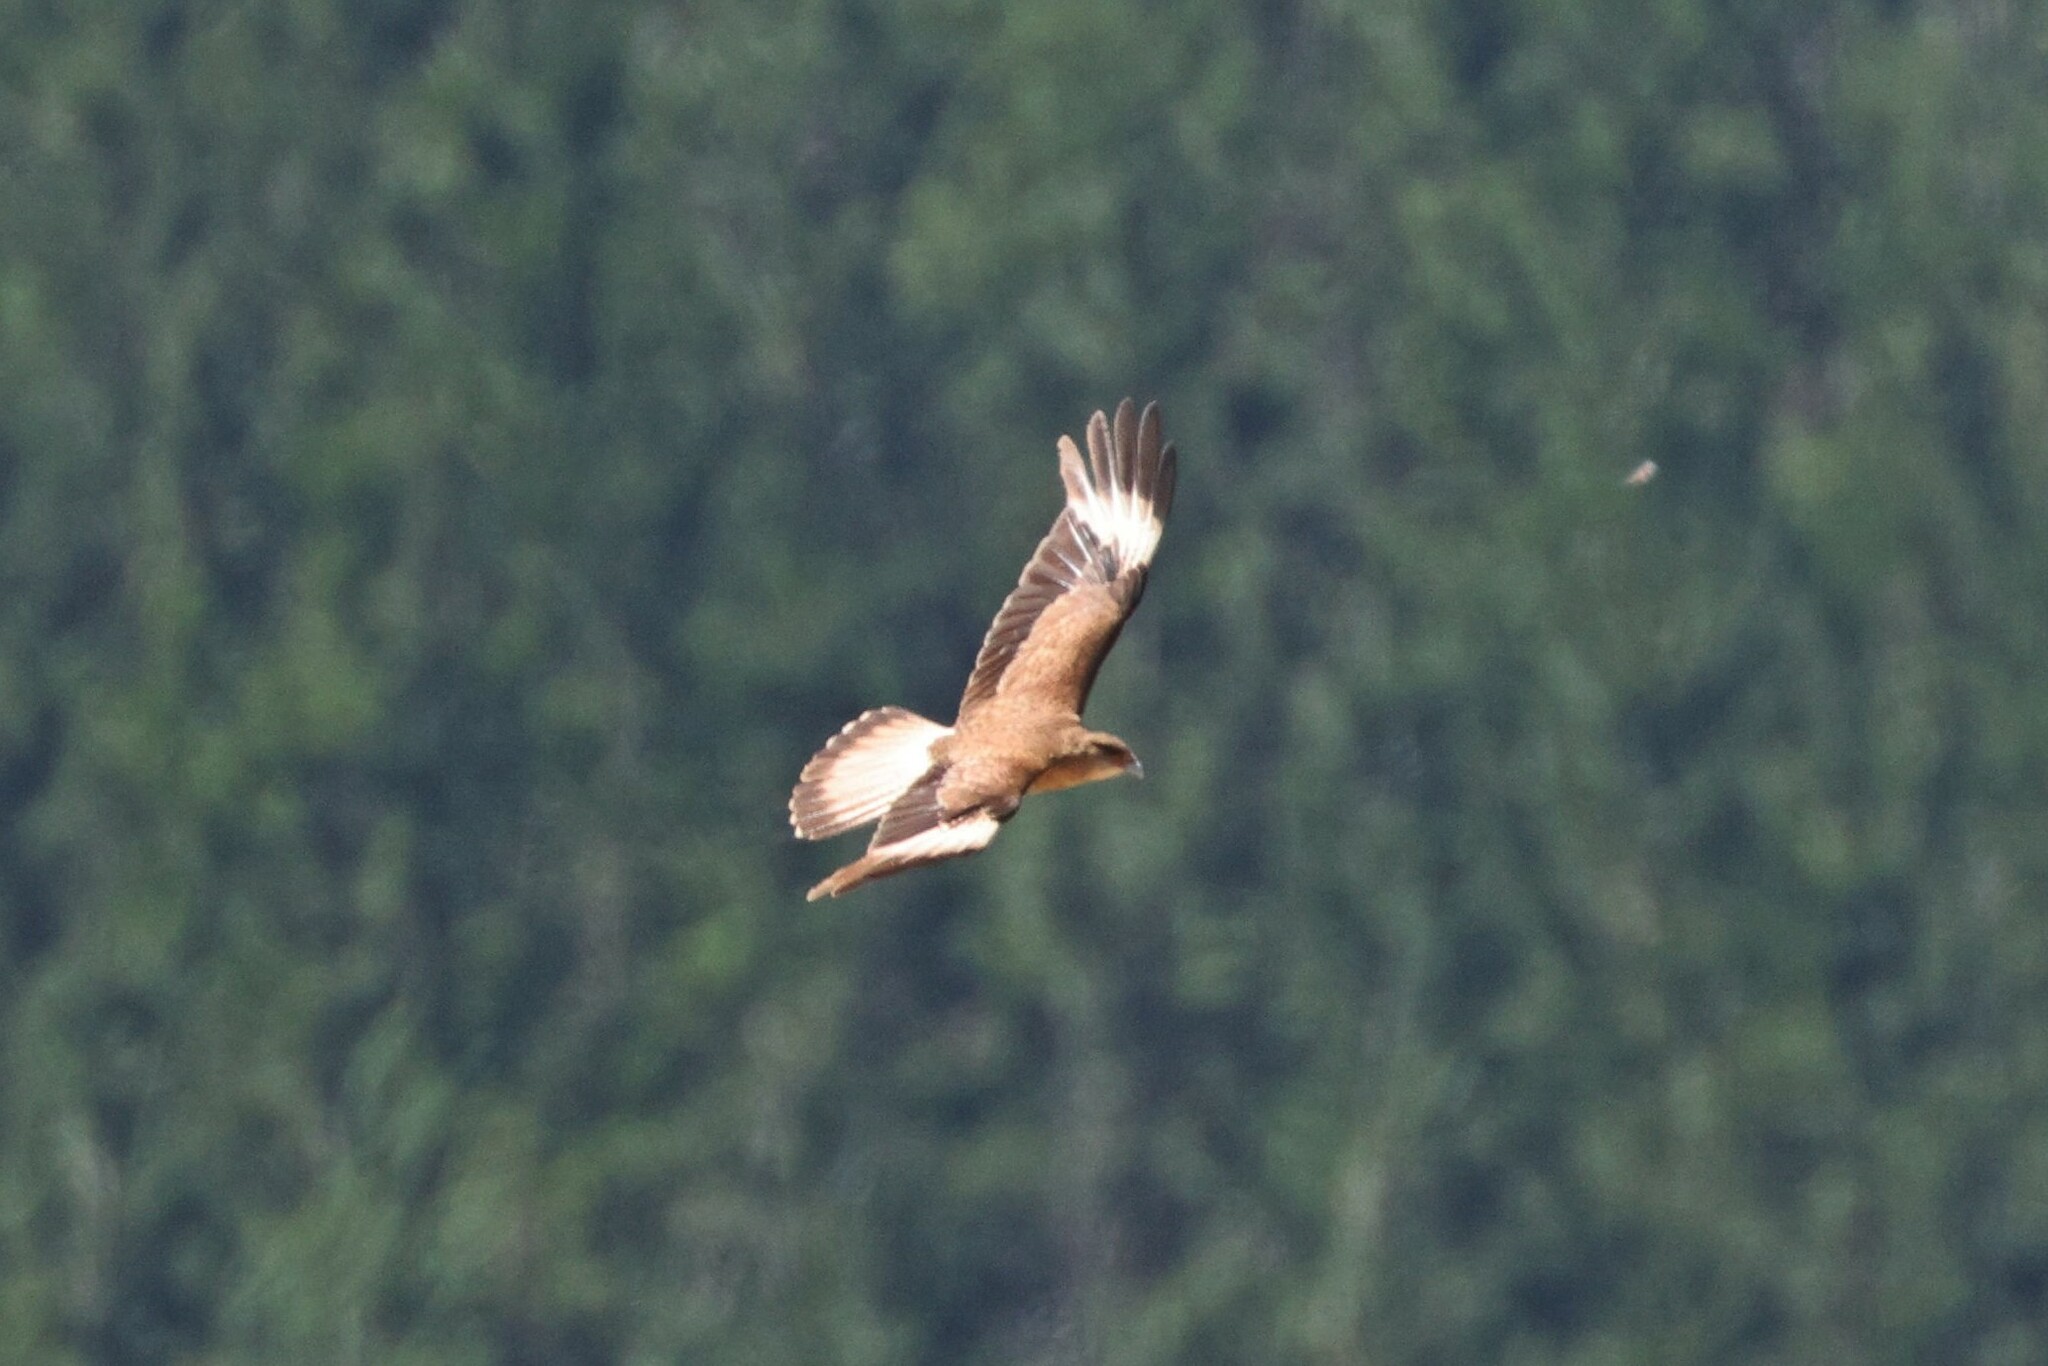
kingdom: Animalia
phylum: Chordata
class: Aves
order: Falconiformes
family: Falconidae
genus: Daptrius
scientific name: Daptrius
